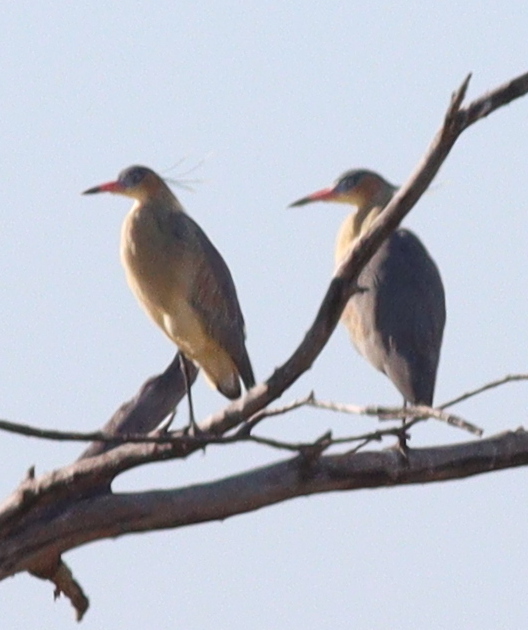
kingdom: Animalia
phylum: Chordata
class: Aves
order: Pelecaniformes
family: Ardeidae
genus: Syrigma
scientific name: Syrigma sibilatrix
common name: Whistling heron
